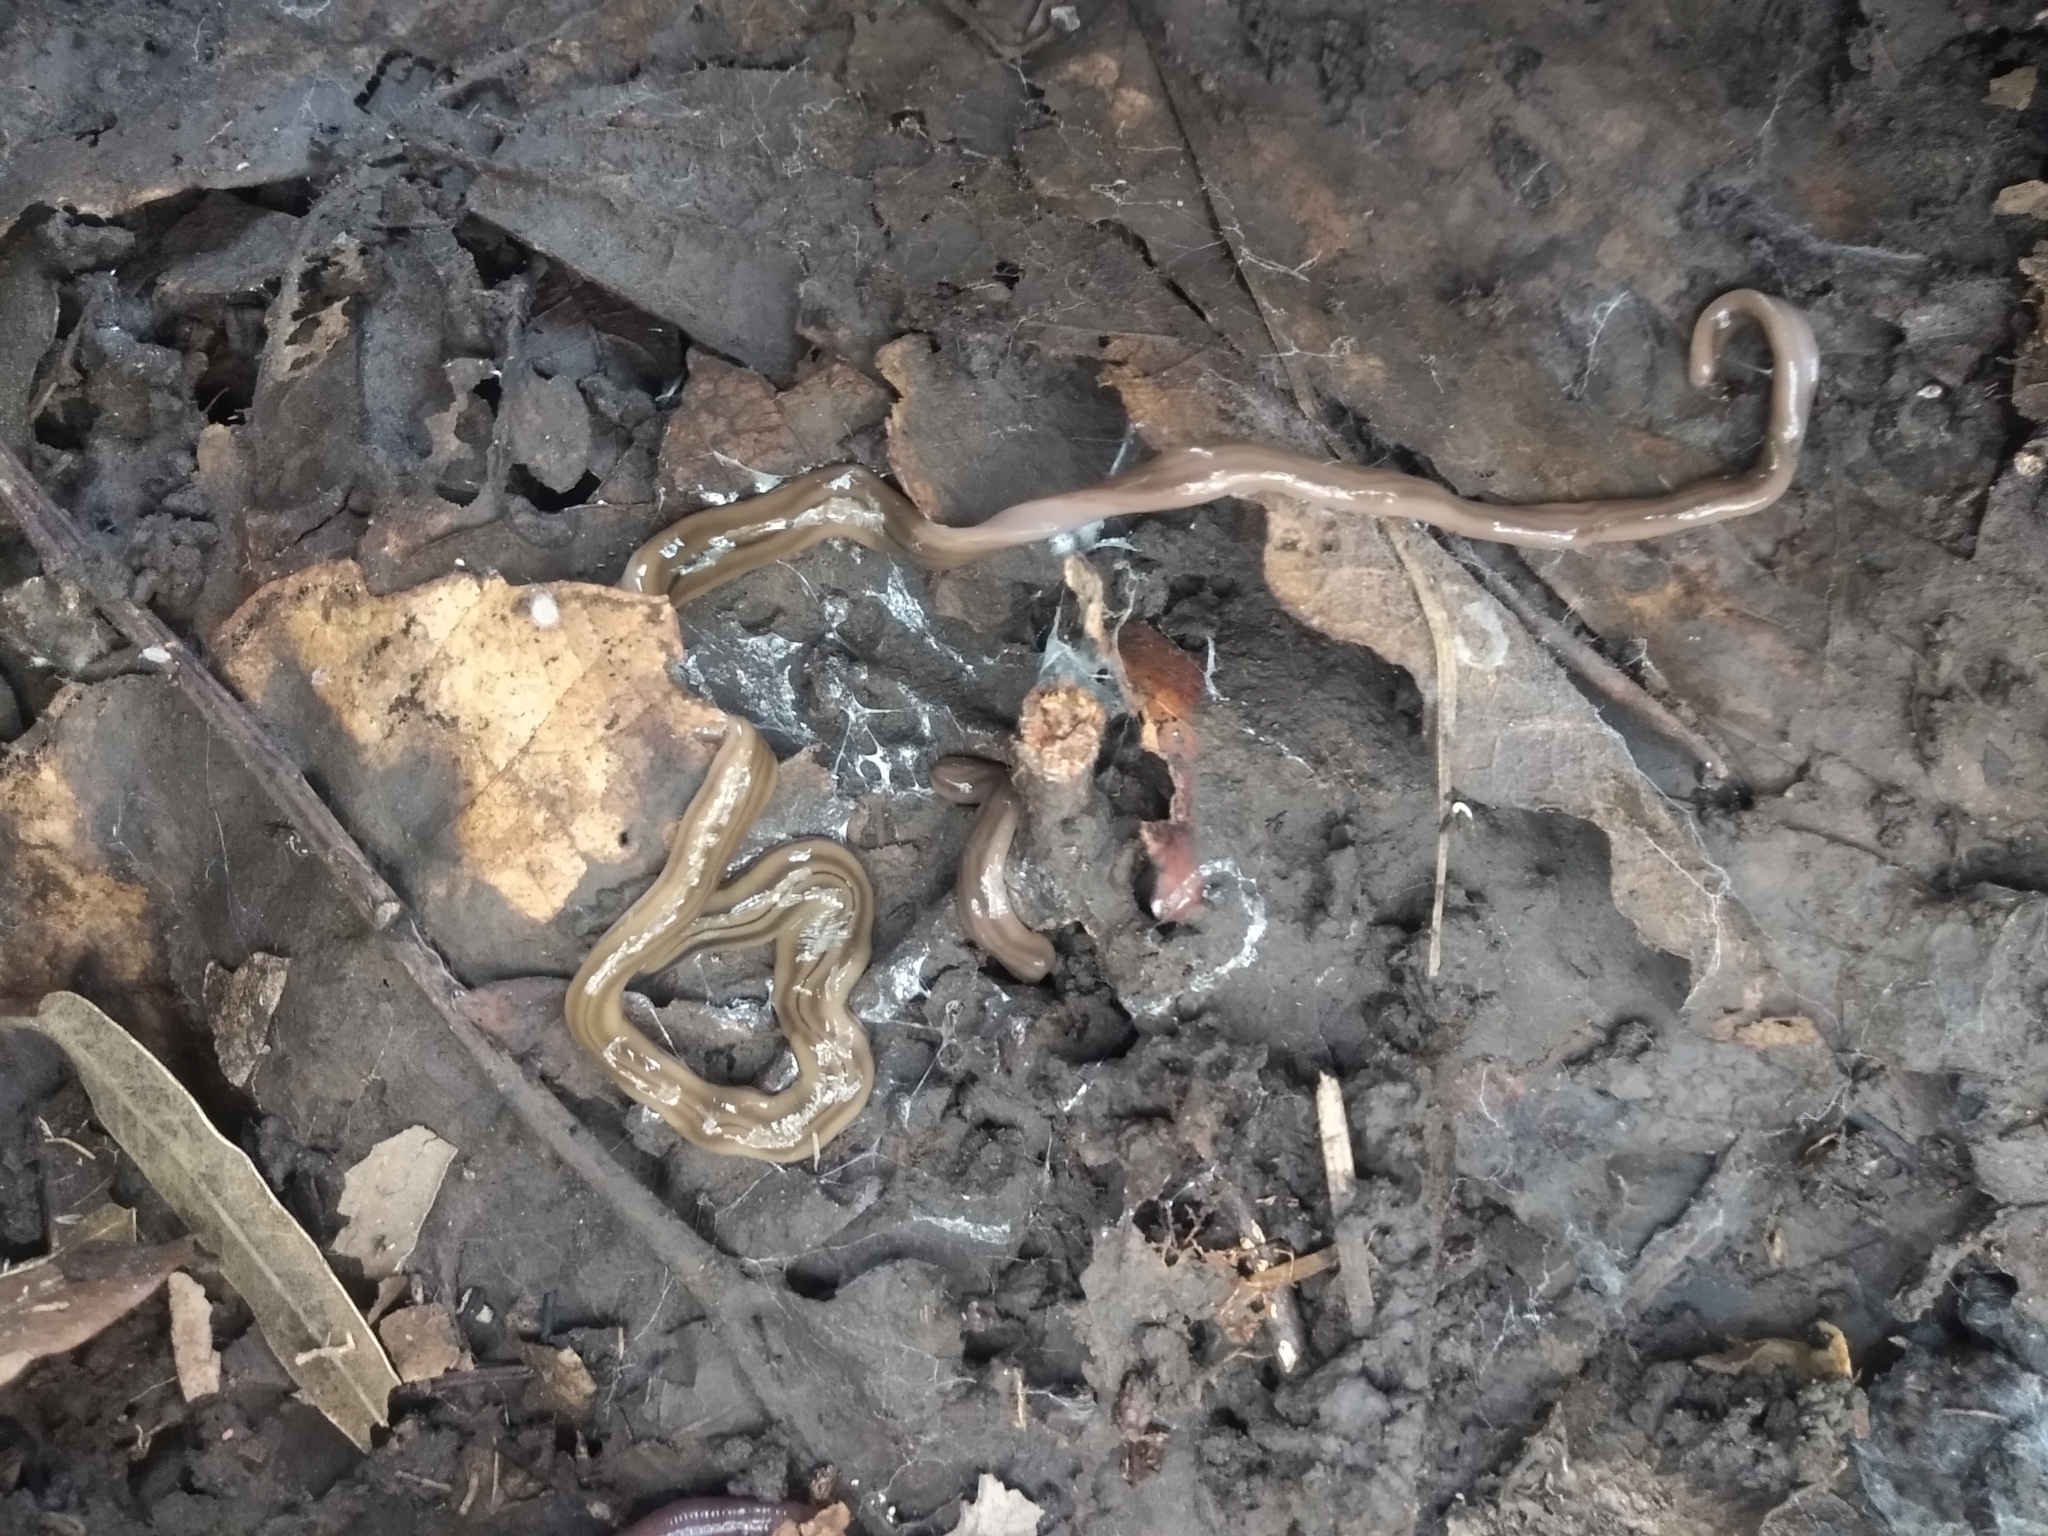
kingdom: Animalia
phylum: Platyhelminthes
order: Tricladida
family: Geoplanidae
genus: Bipalium
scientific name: Bipalium kewense
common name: Hammerhead flatworm
